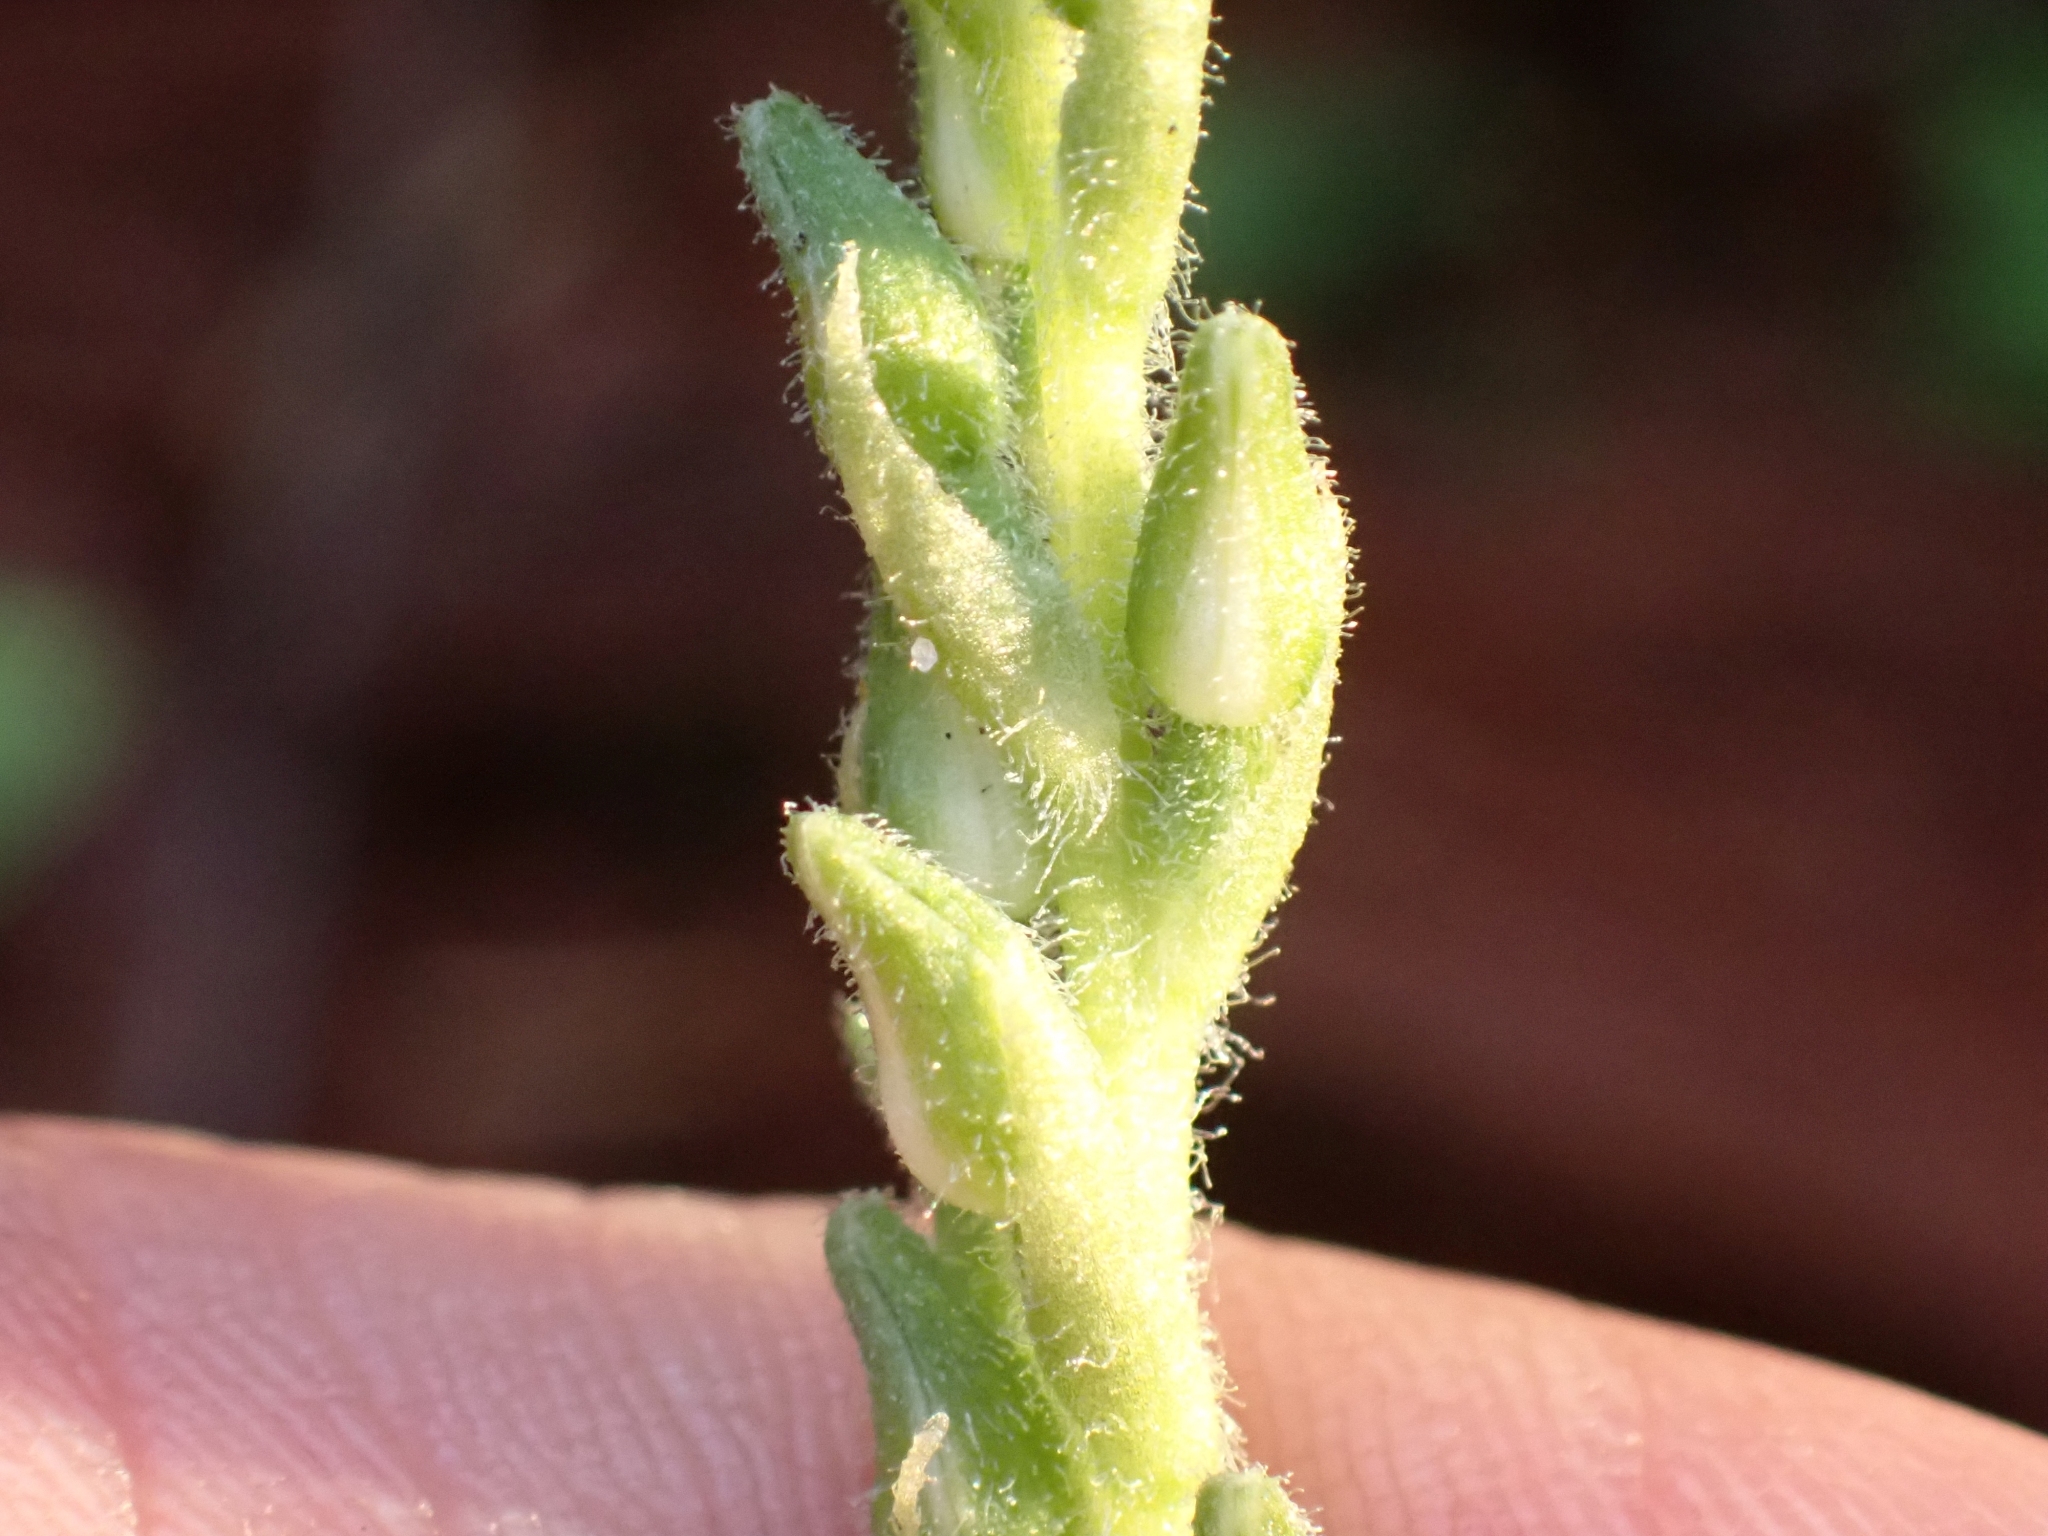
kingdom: Plantae
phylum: Tracheophyta
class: Liliopsida
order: Asparagales
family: Orchidaceae
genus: Goodyera
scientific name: Goodyera oblongifolia
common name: Giant rattlesnake-plantain
